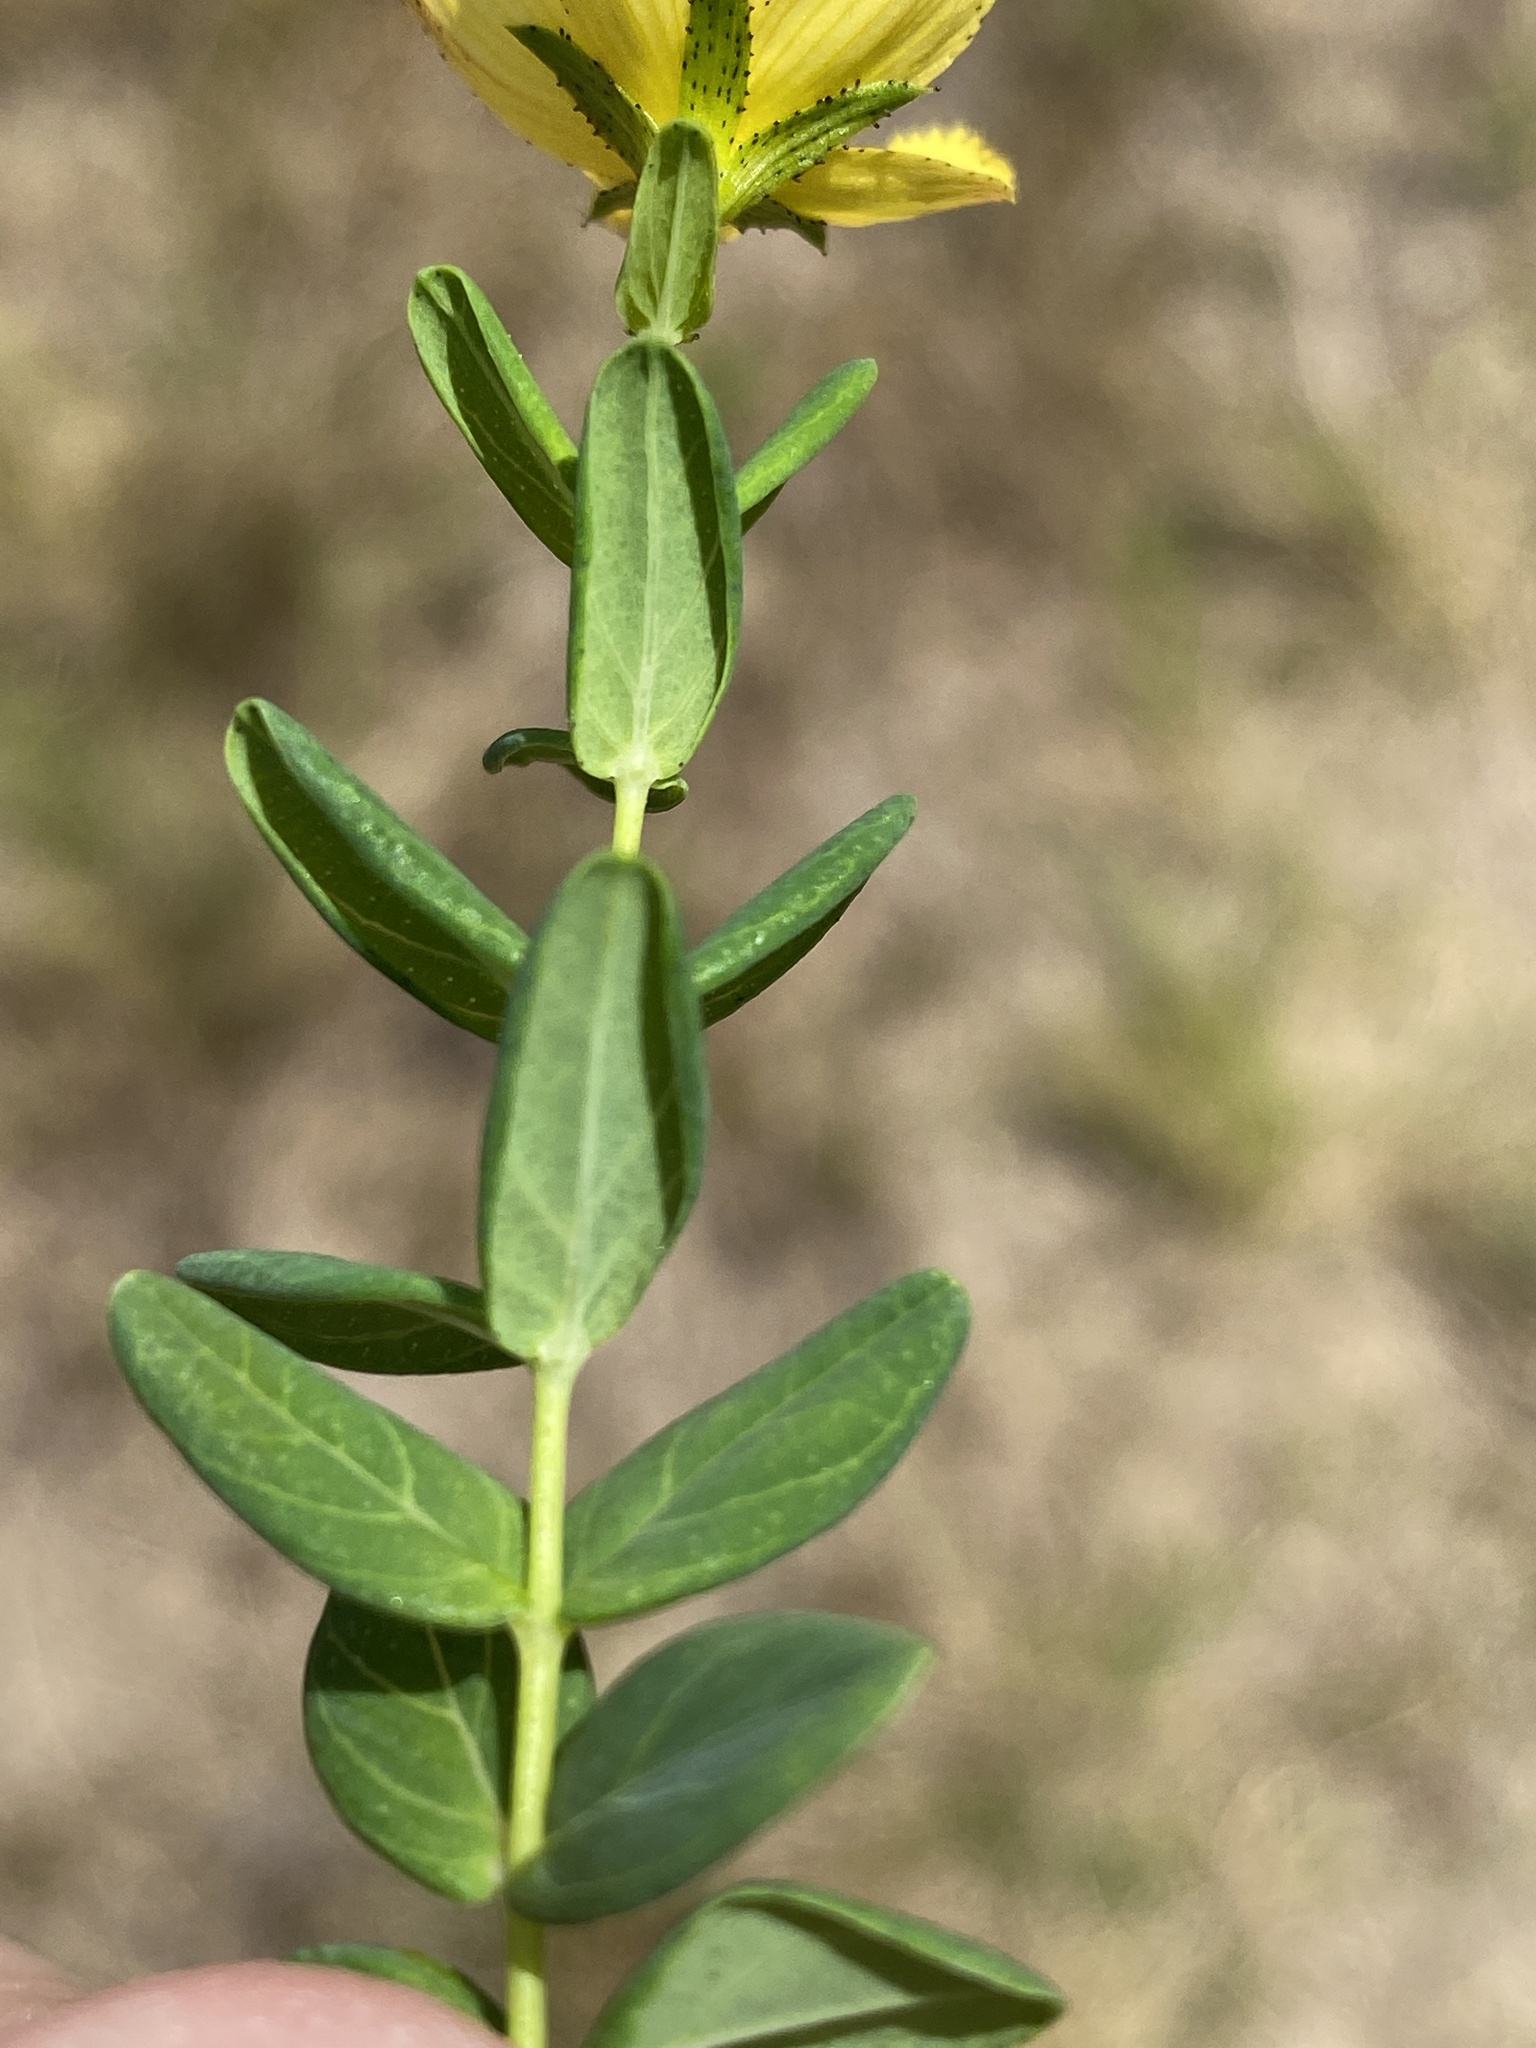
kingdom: Plantae
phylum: Tracheophyta
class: Magnoliopsida
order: Malpighiales
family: Hypericaceae
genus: Hypericum
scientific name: Hypericum aethiopicum
